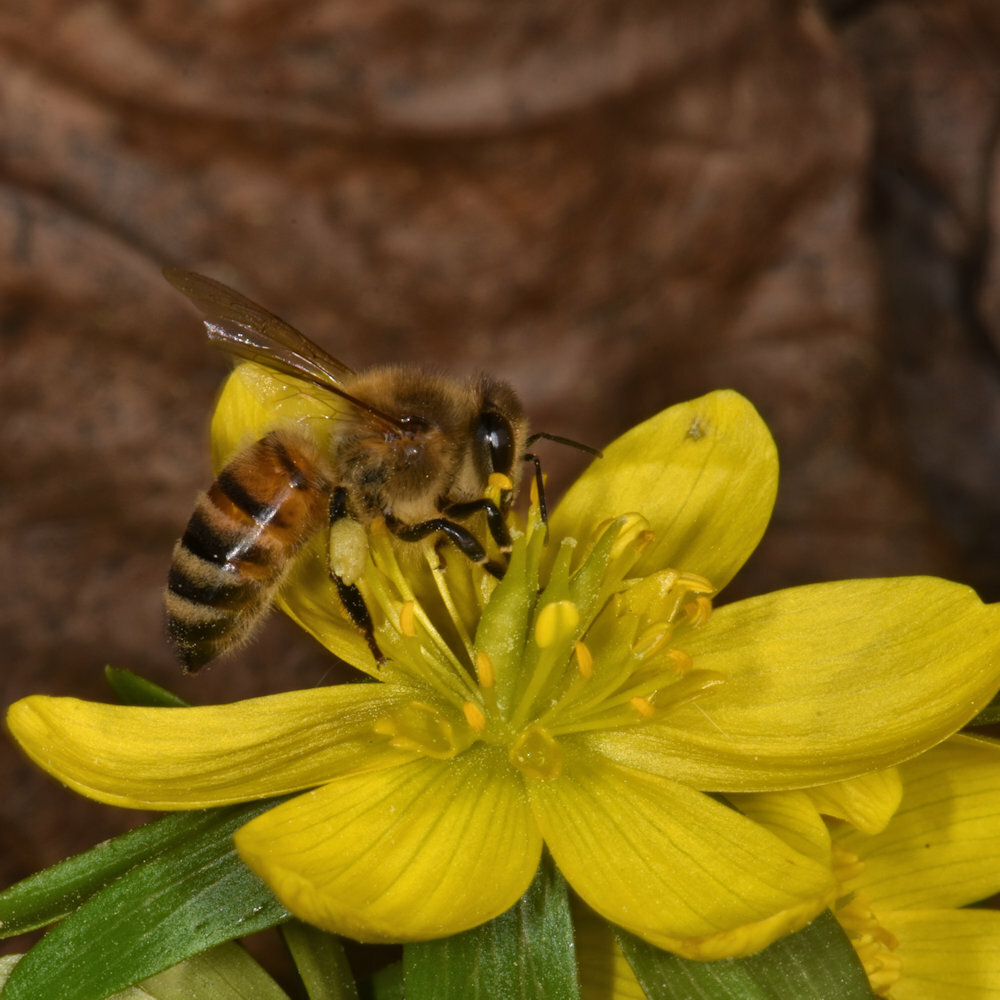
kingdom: Animalia
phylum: Arthropoda
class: Insecta
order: Hymenoptera
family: Apidae
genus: Apis
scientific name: Apis mellifera
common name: Honey bee
